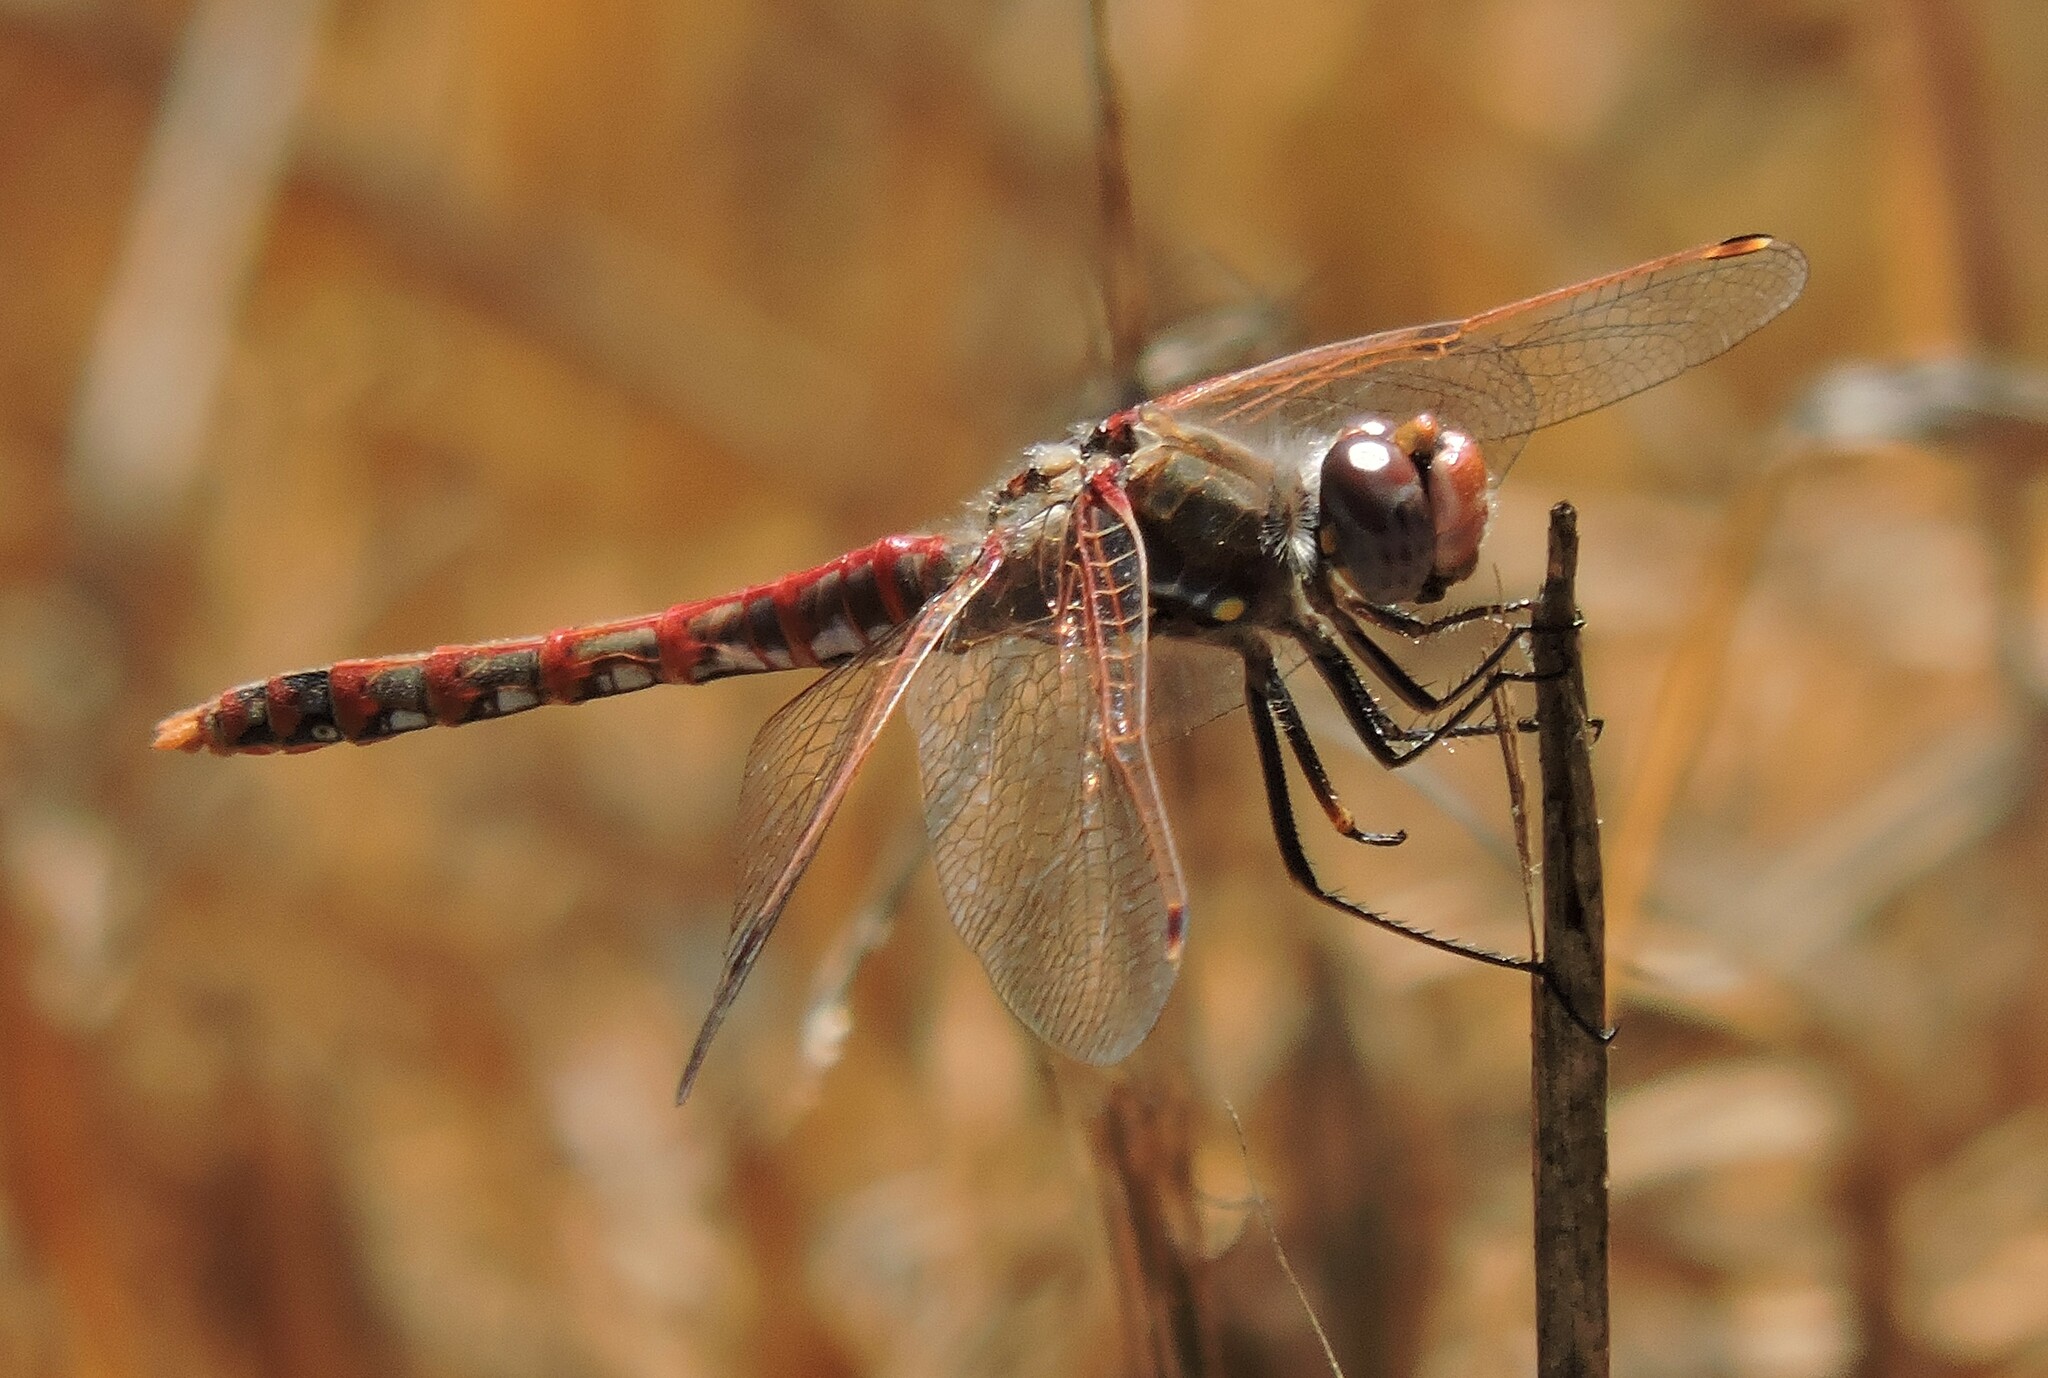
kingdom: Animalia
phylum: Arthropoda
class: Insecta
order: Odonata
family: Libellulidae
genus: Sympetrum
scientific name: Sympetrum corruptum
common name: Variegated meadowhawk
